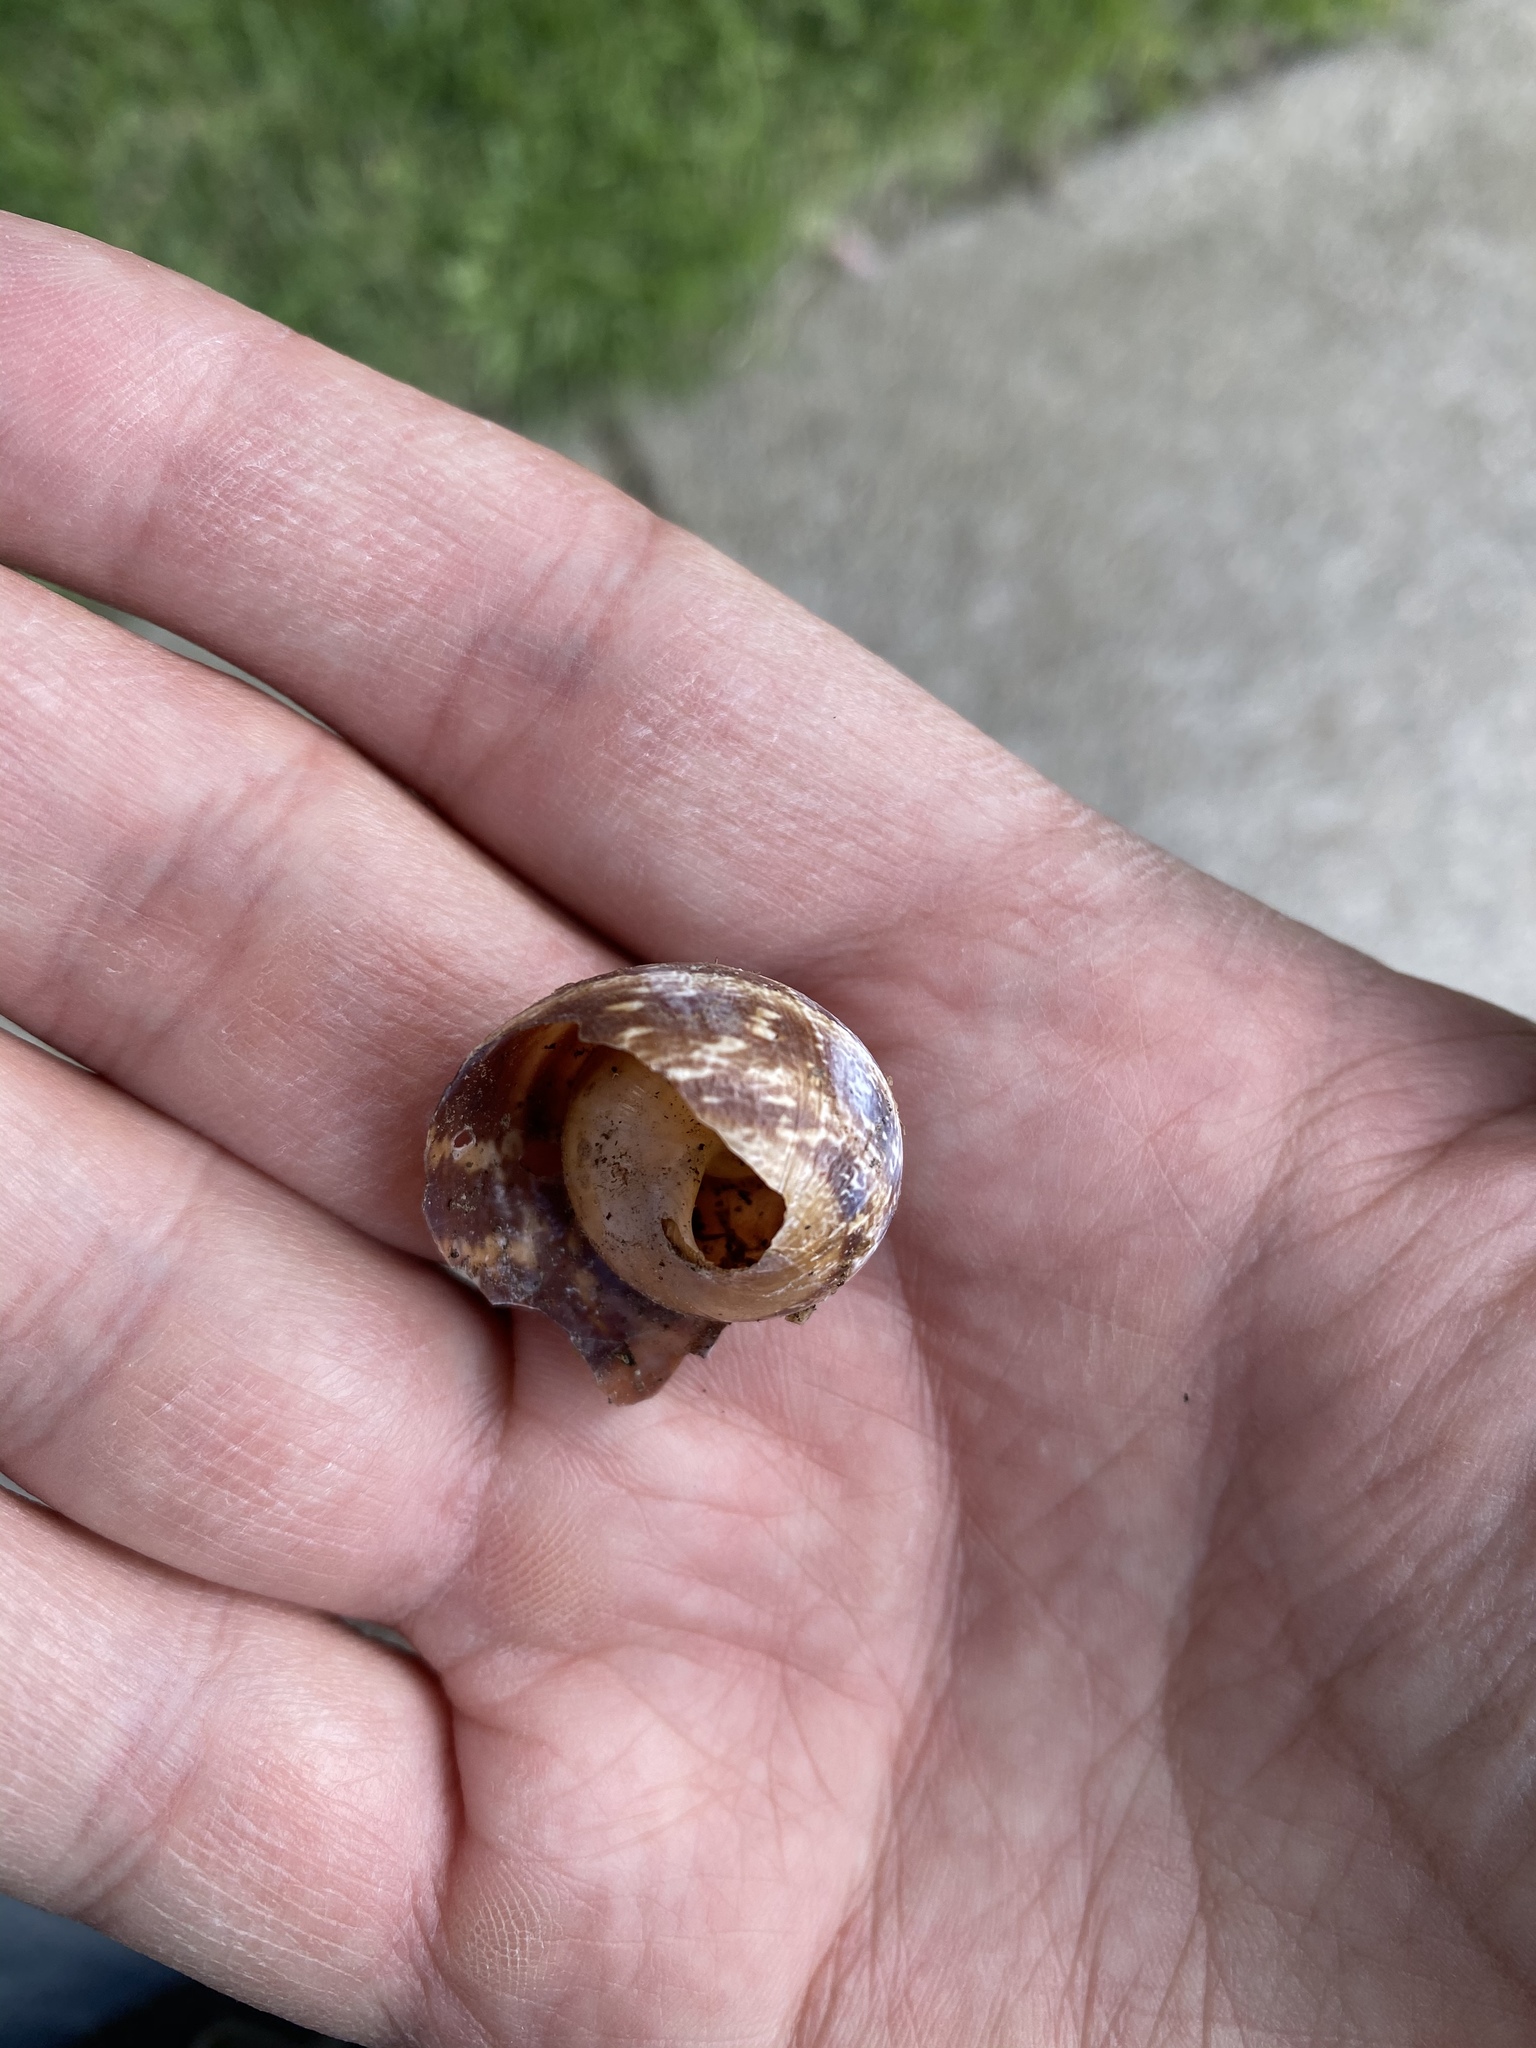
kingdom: Animalia
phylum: Mollusca
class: Gastropoda
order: Stylommatophora
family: Helicidae
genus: Cornu
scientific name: Cornu aspersum
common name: Brown garden snail
